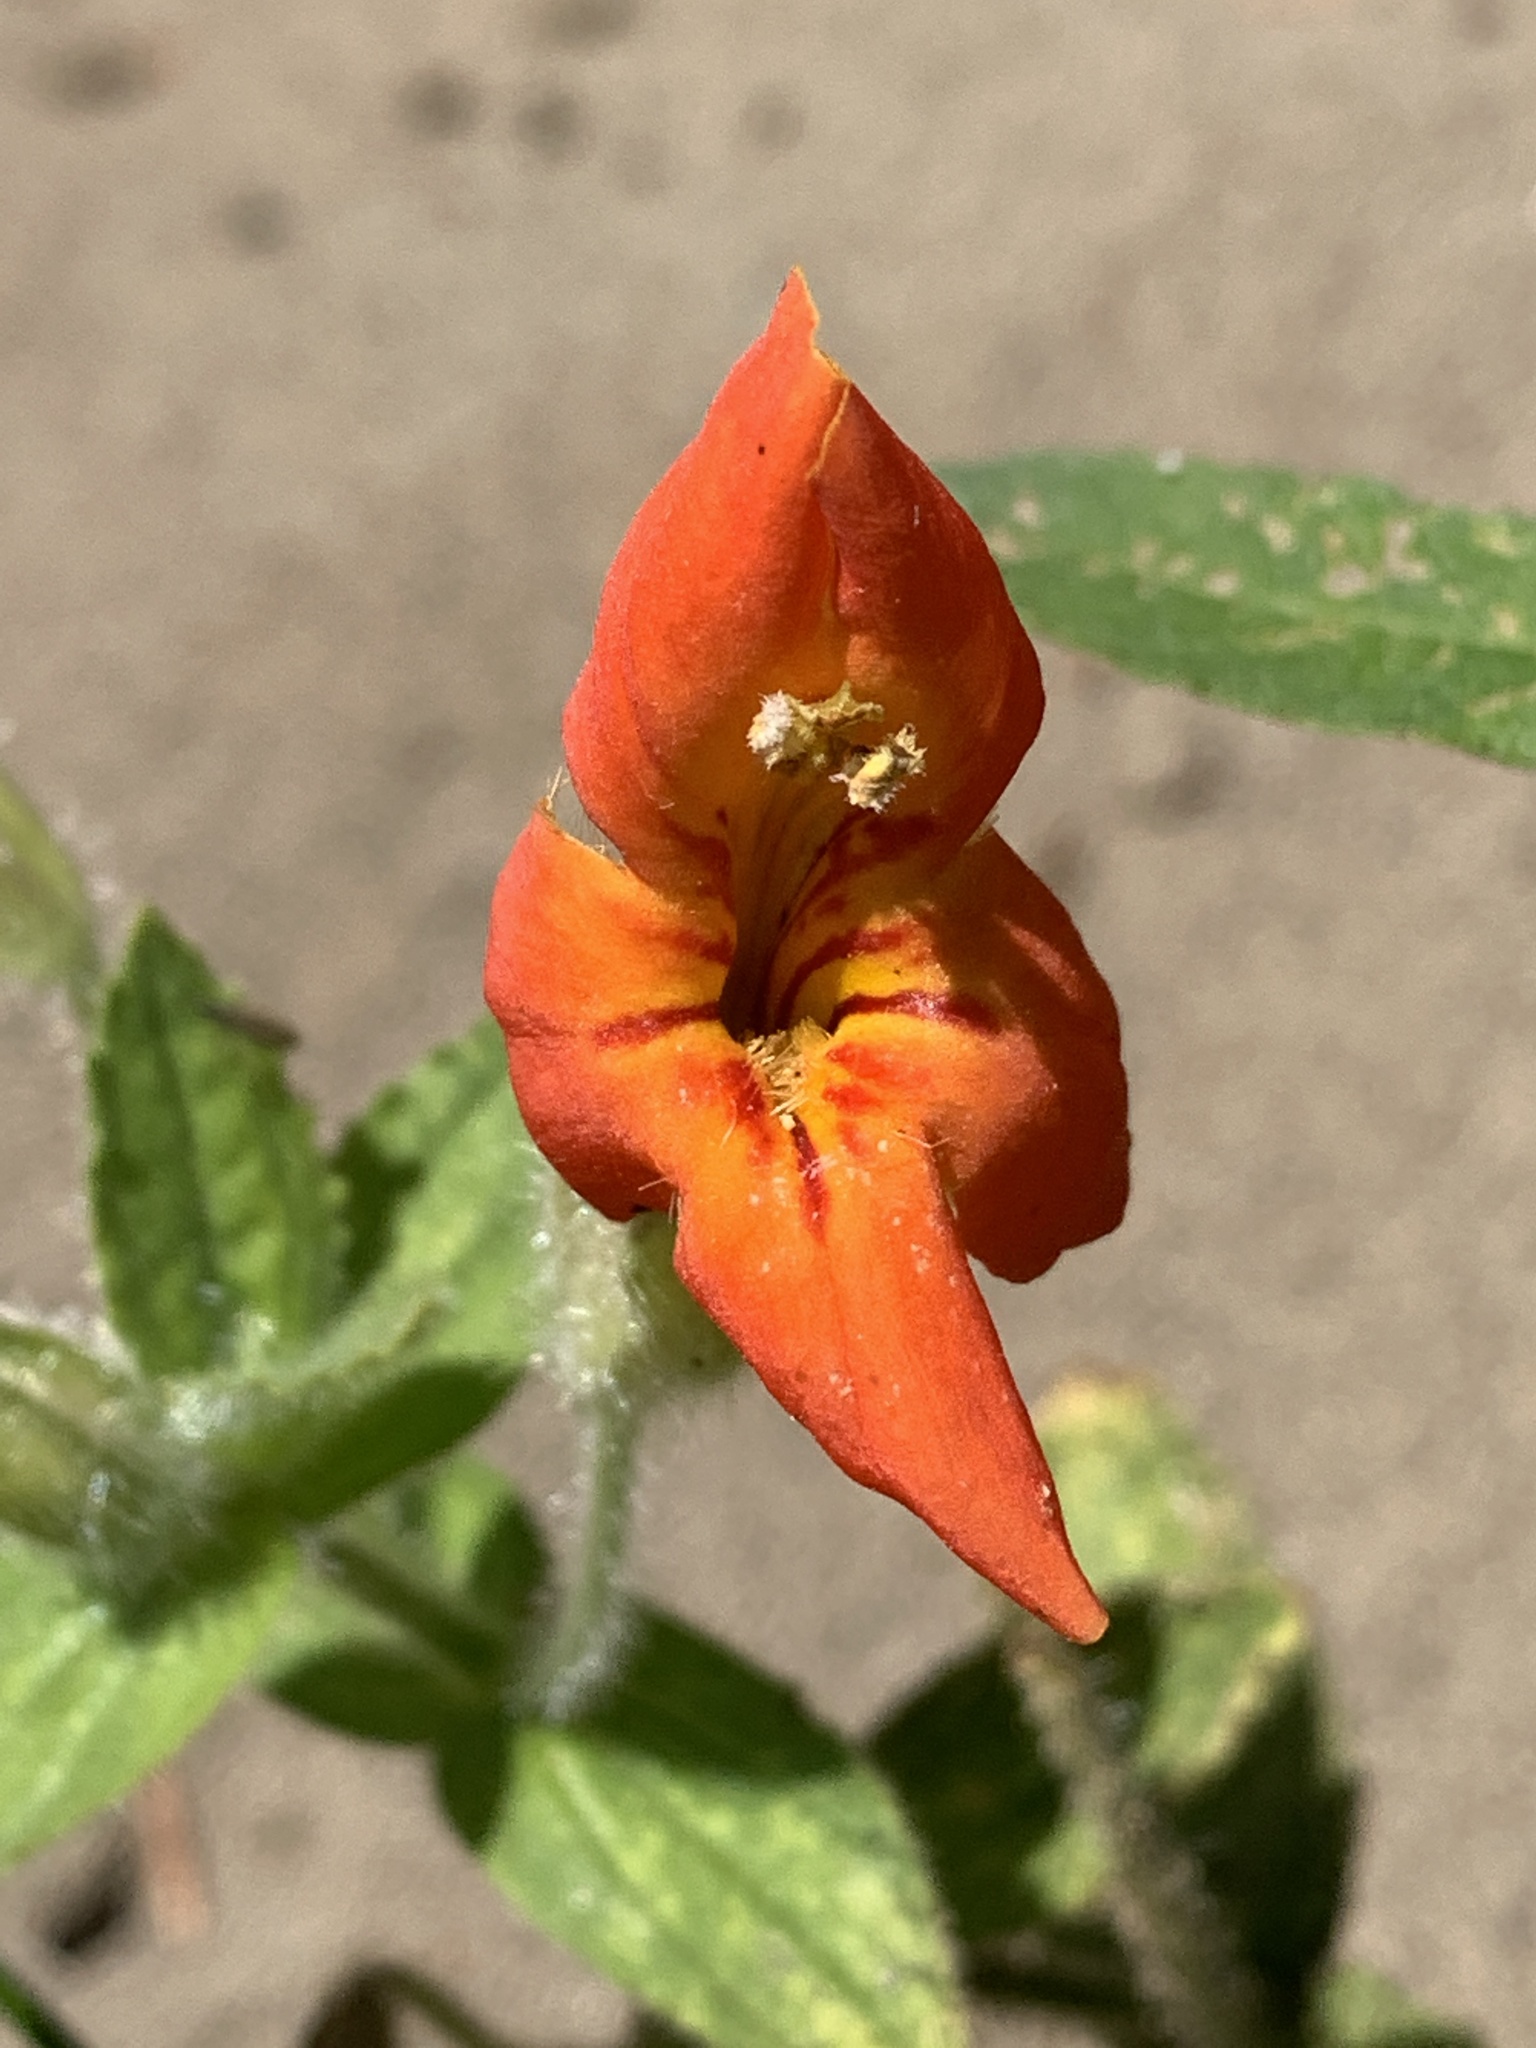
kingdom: Plantae
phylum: Tracheophyta
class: Magnoliopsida
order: Lamiales
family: Phrymaceae
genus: Erythranthe
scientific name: Erythranthe cardinalis
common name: Scarlet monkey-flower
